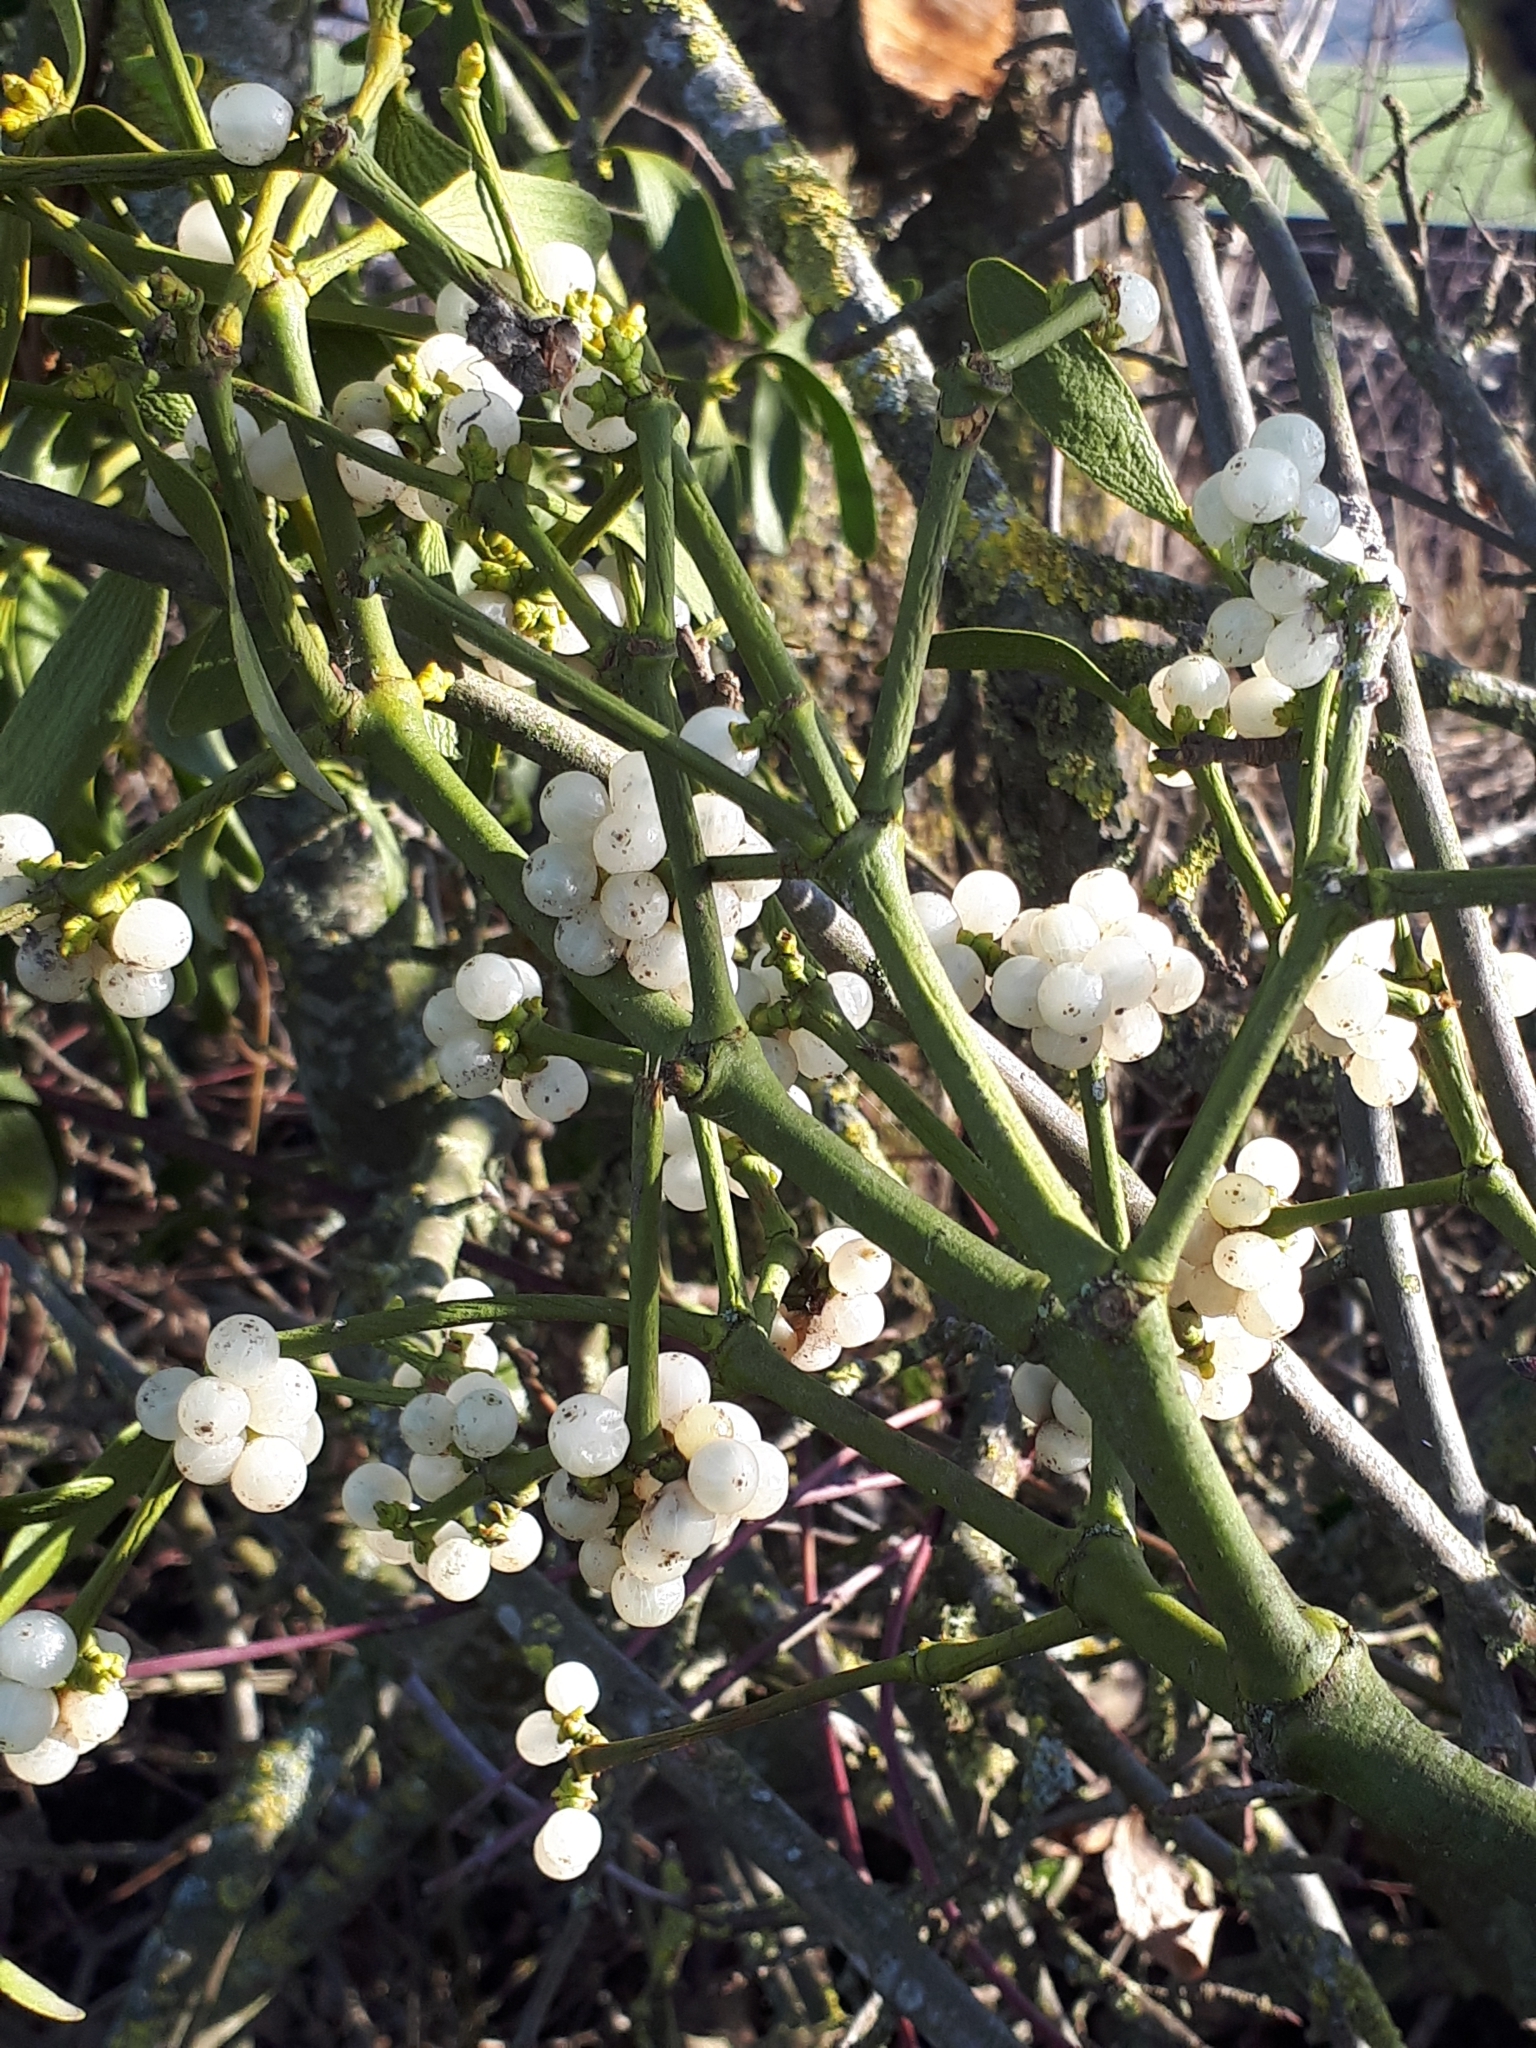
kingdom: Plantae
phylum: Tracheophyta
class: Magnoliopsida
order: Santalales
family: Viscaceae
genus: Viscum
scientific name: Viscum album
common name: Mistletoe
